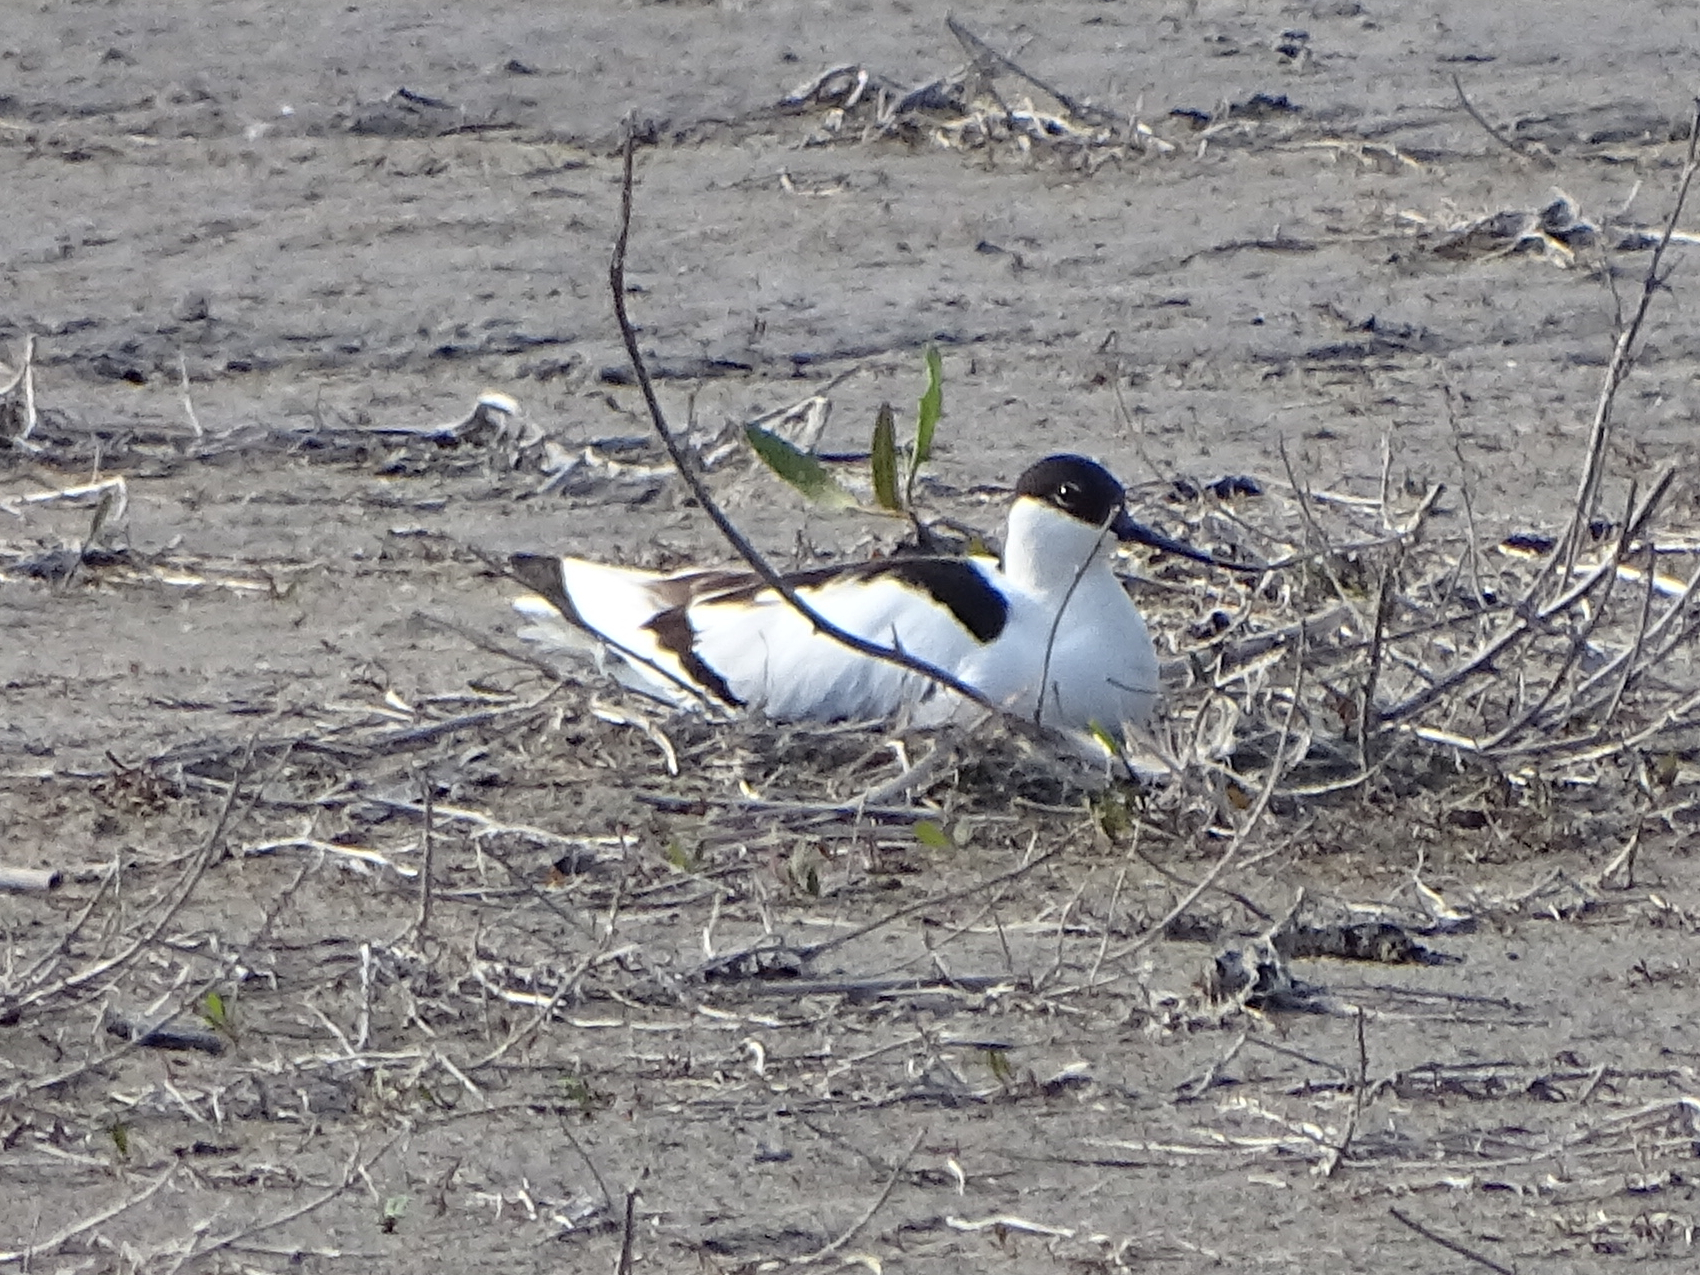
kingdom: Animalia
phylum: Chordata
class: Aves
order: Charadriiformes
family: Recurvirostridae
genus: Recurvirostra
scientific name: Recurvirostra avosetta
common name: Pied avocet
